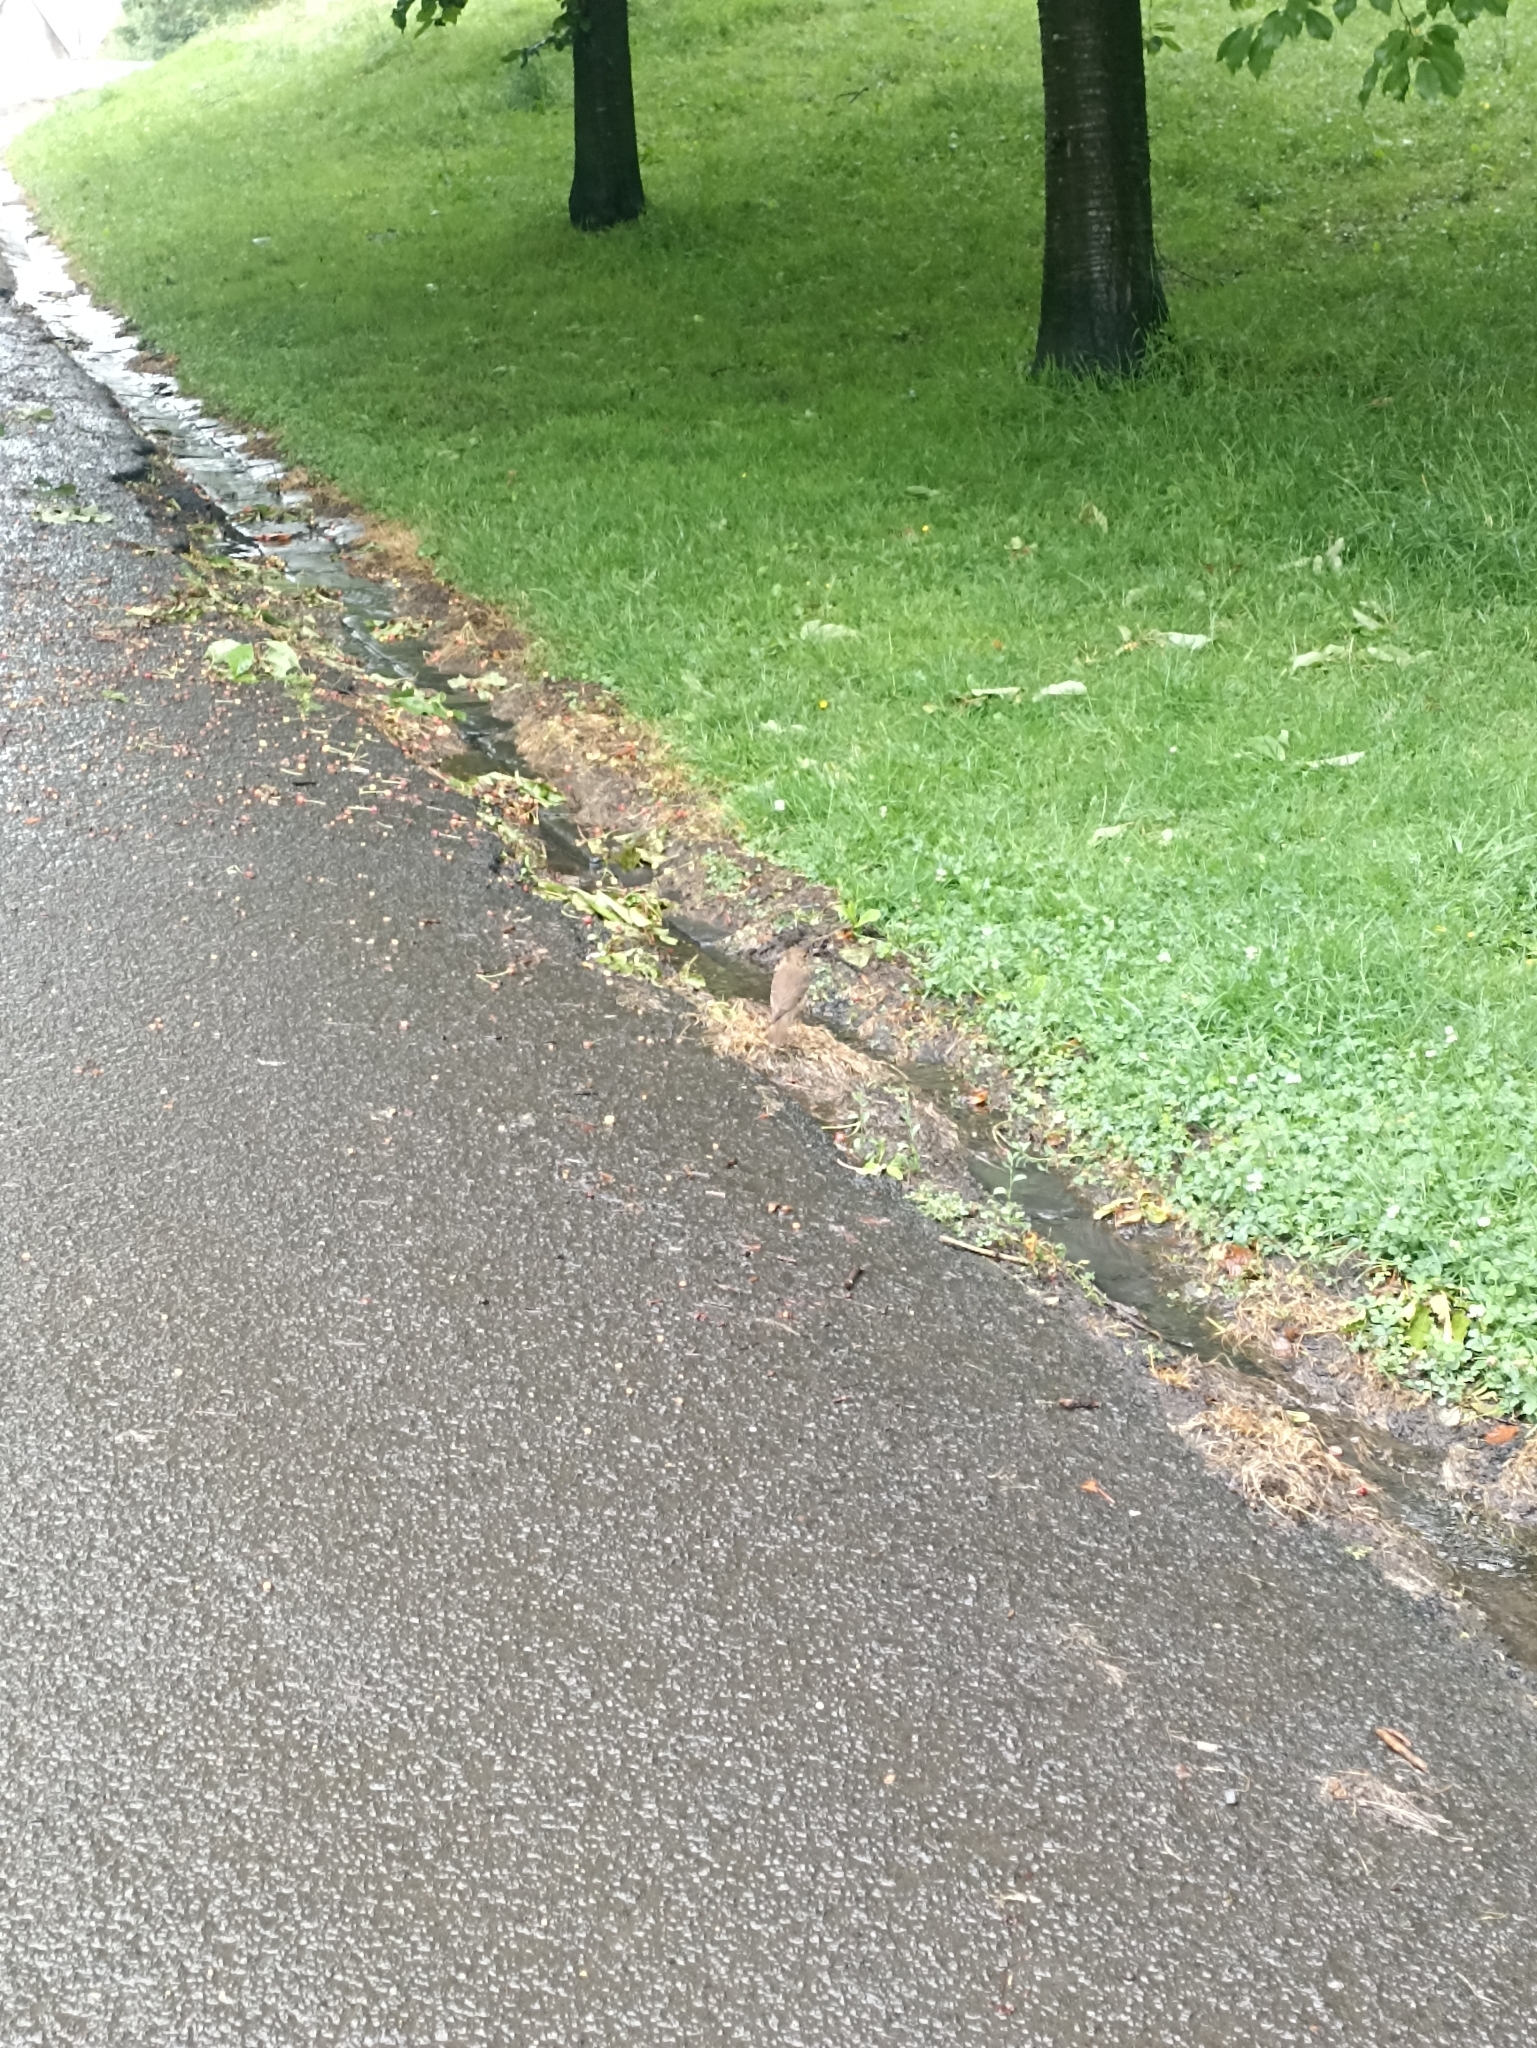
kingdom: Animalia
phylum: Chordata
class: Aves
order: Passeriformes
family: Turdidae
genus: Turdus
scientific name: Turdus philomelos
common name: Song thrush
